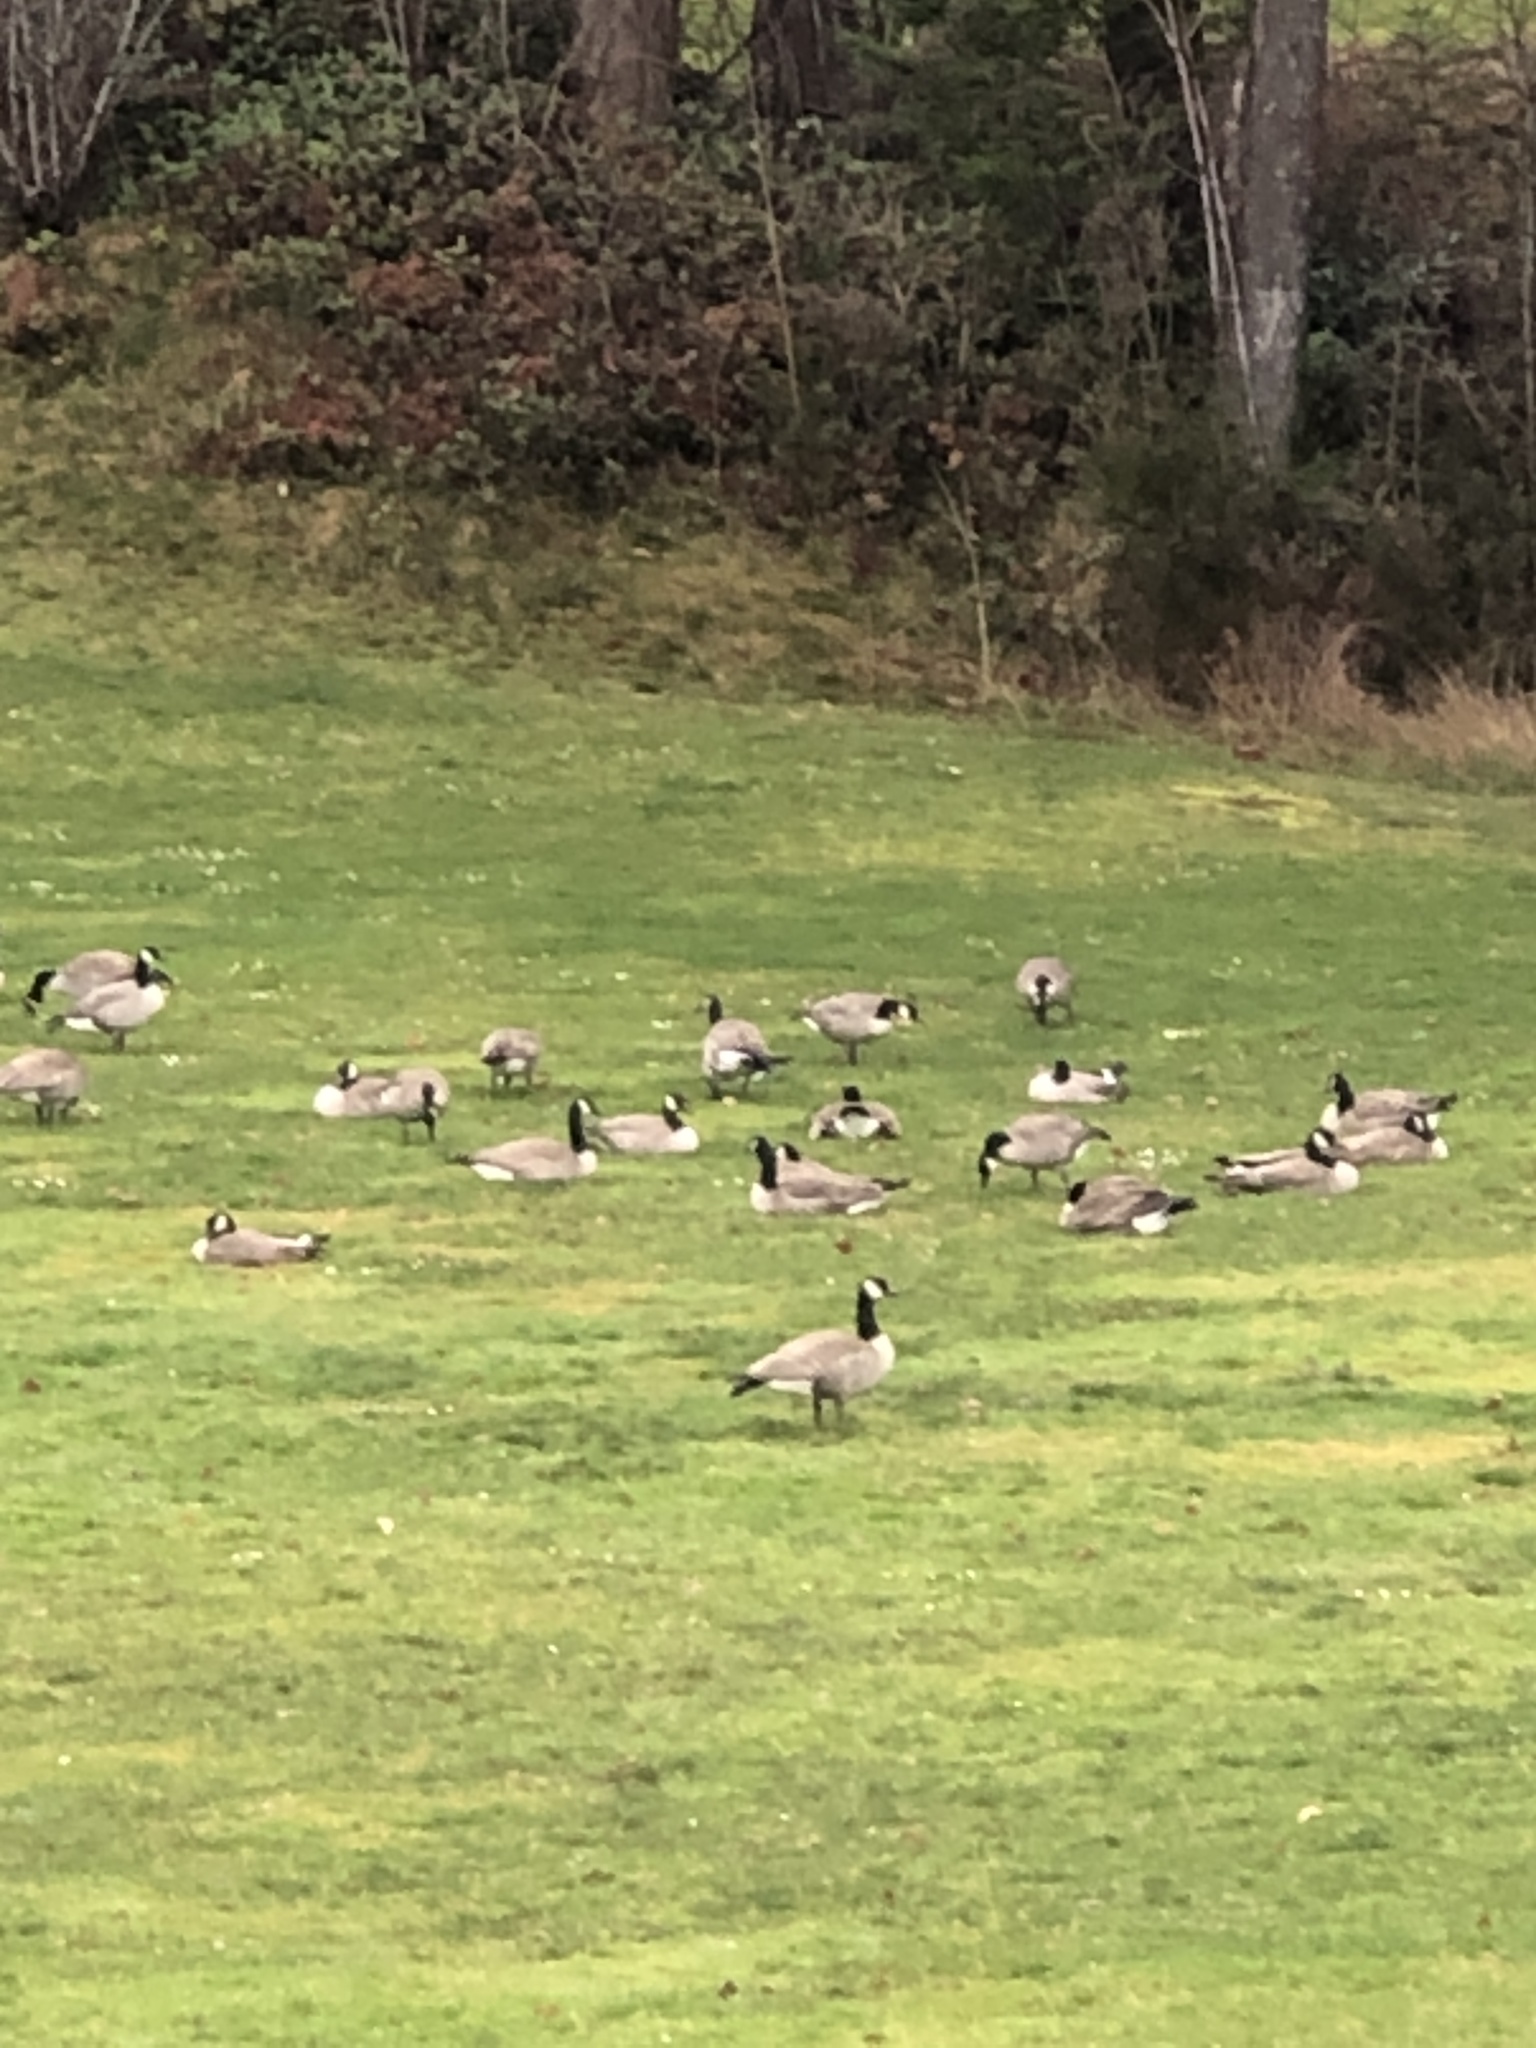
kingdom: Animalia
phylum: Chordata
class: Aves
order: Anseriformes
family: Anatidae
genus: Branta
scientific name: Branta canadensis
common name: Canada goose
